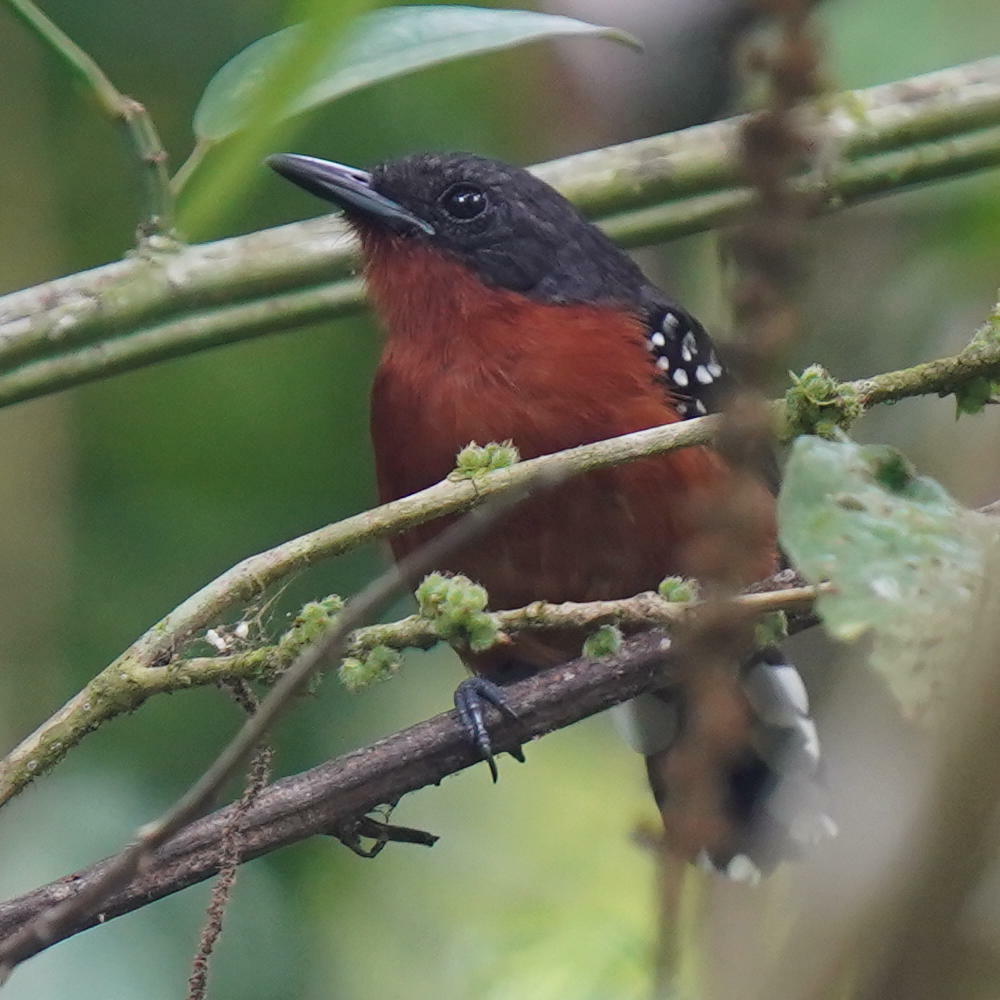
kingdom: Animalia
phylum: Chordata
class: Aves
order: Passeriformes
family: Thamnophilidae
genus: Microrhopias
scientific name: Microrhopias quixensis
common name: Dot-winged antwren
